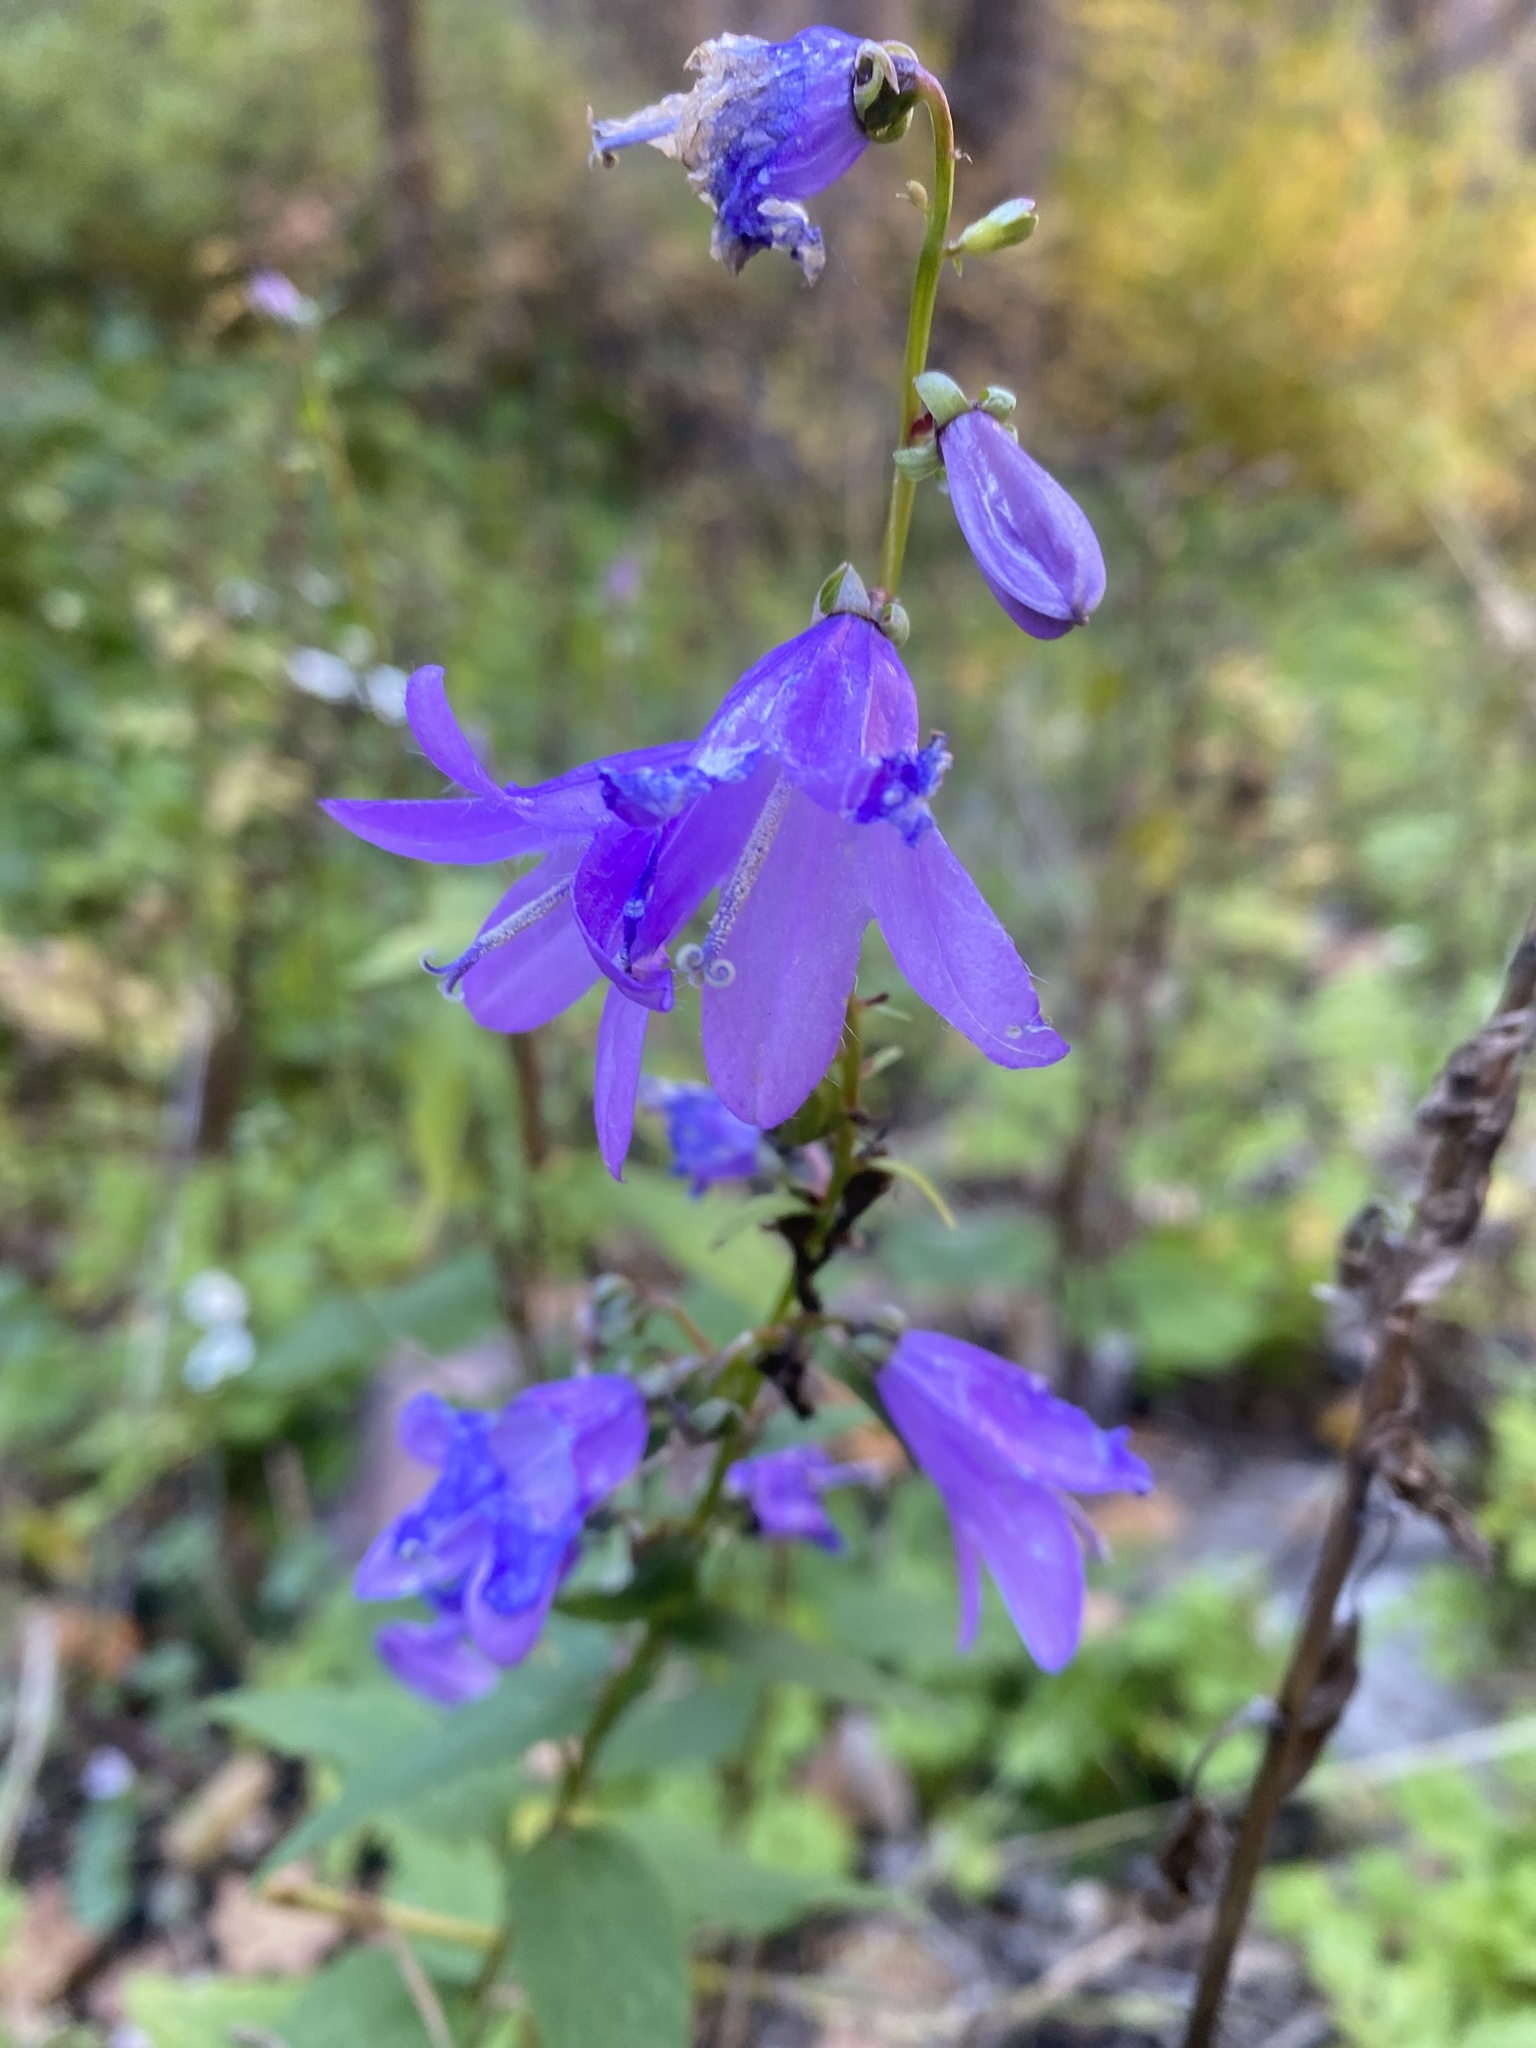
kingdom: Plantae
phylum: Tracheophyta
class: Magnoliopsida
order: Asterales
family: Campanulaceae
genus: Campanula
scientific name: Campanula rapunculoides
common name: Creeping bellflower
